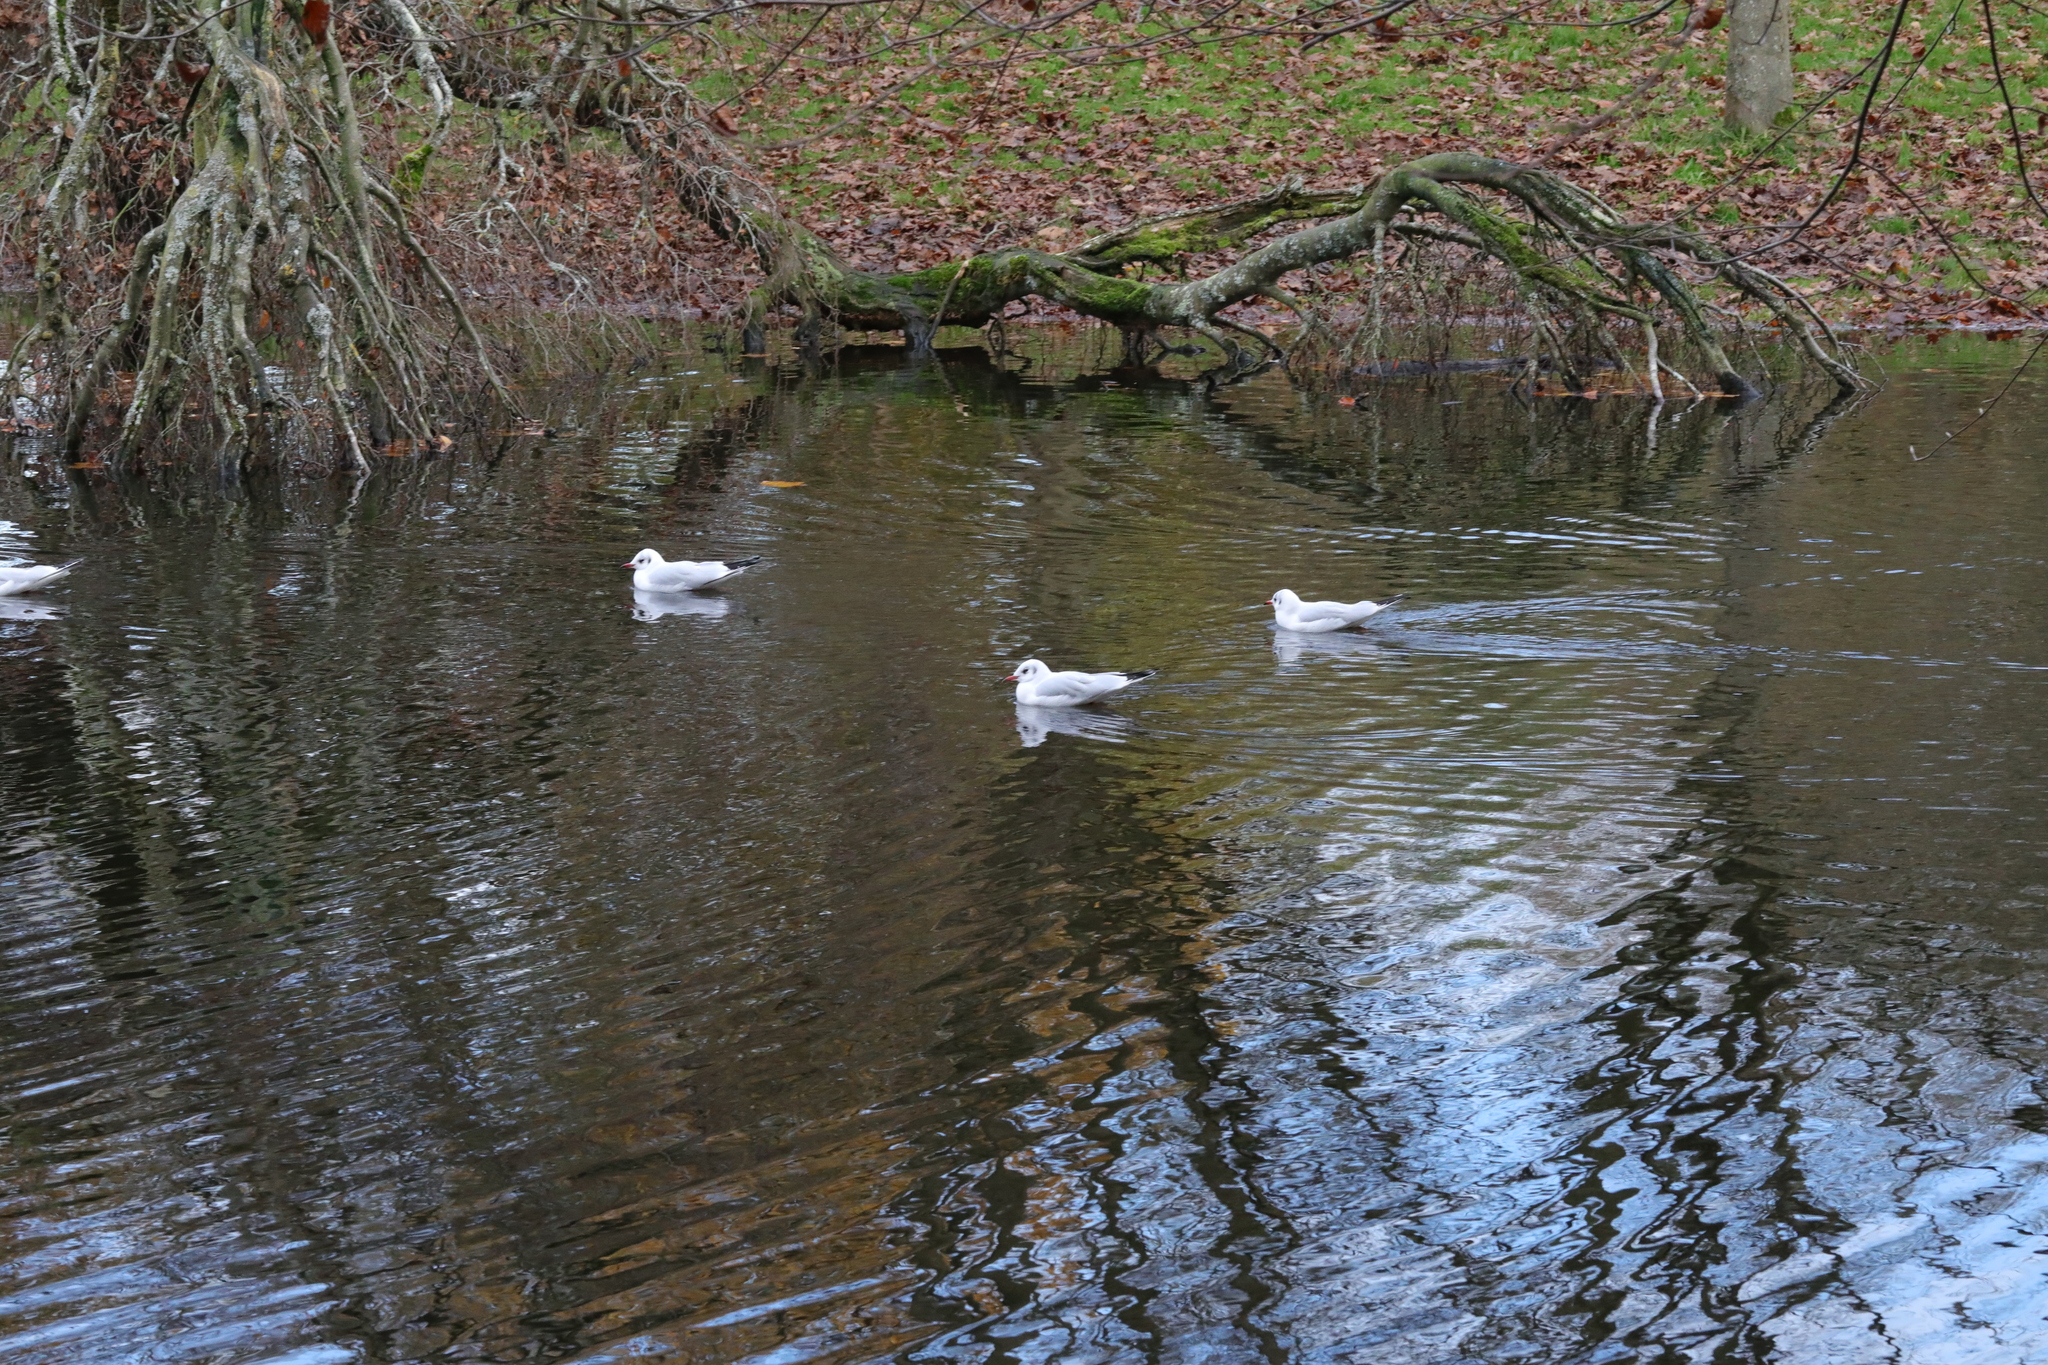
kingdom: Animalia
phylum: Chordata
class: Aves
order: Charadriiformes
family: Laridae
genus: Chroicocephalus
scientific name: Chroicocephalus ridibundus
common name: Black-headed gull
